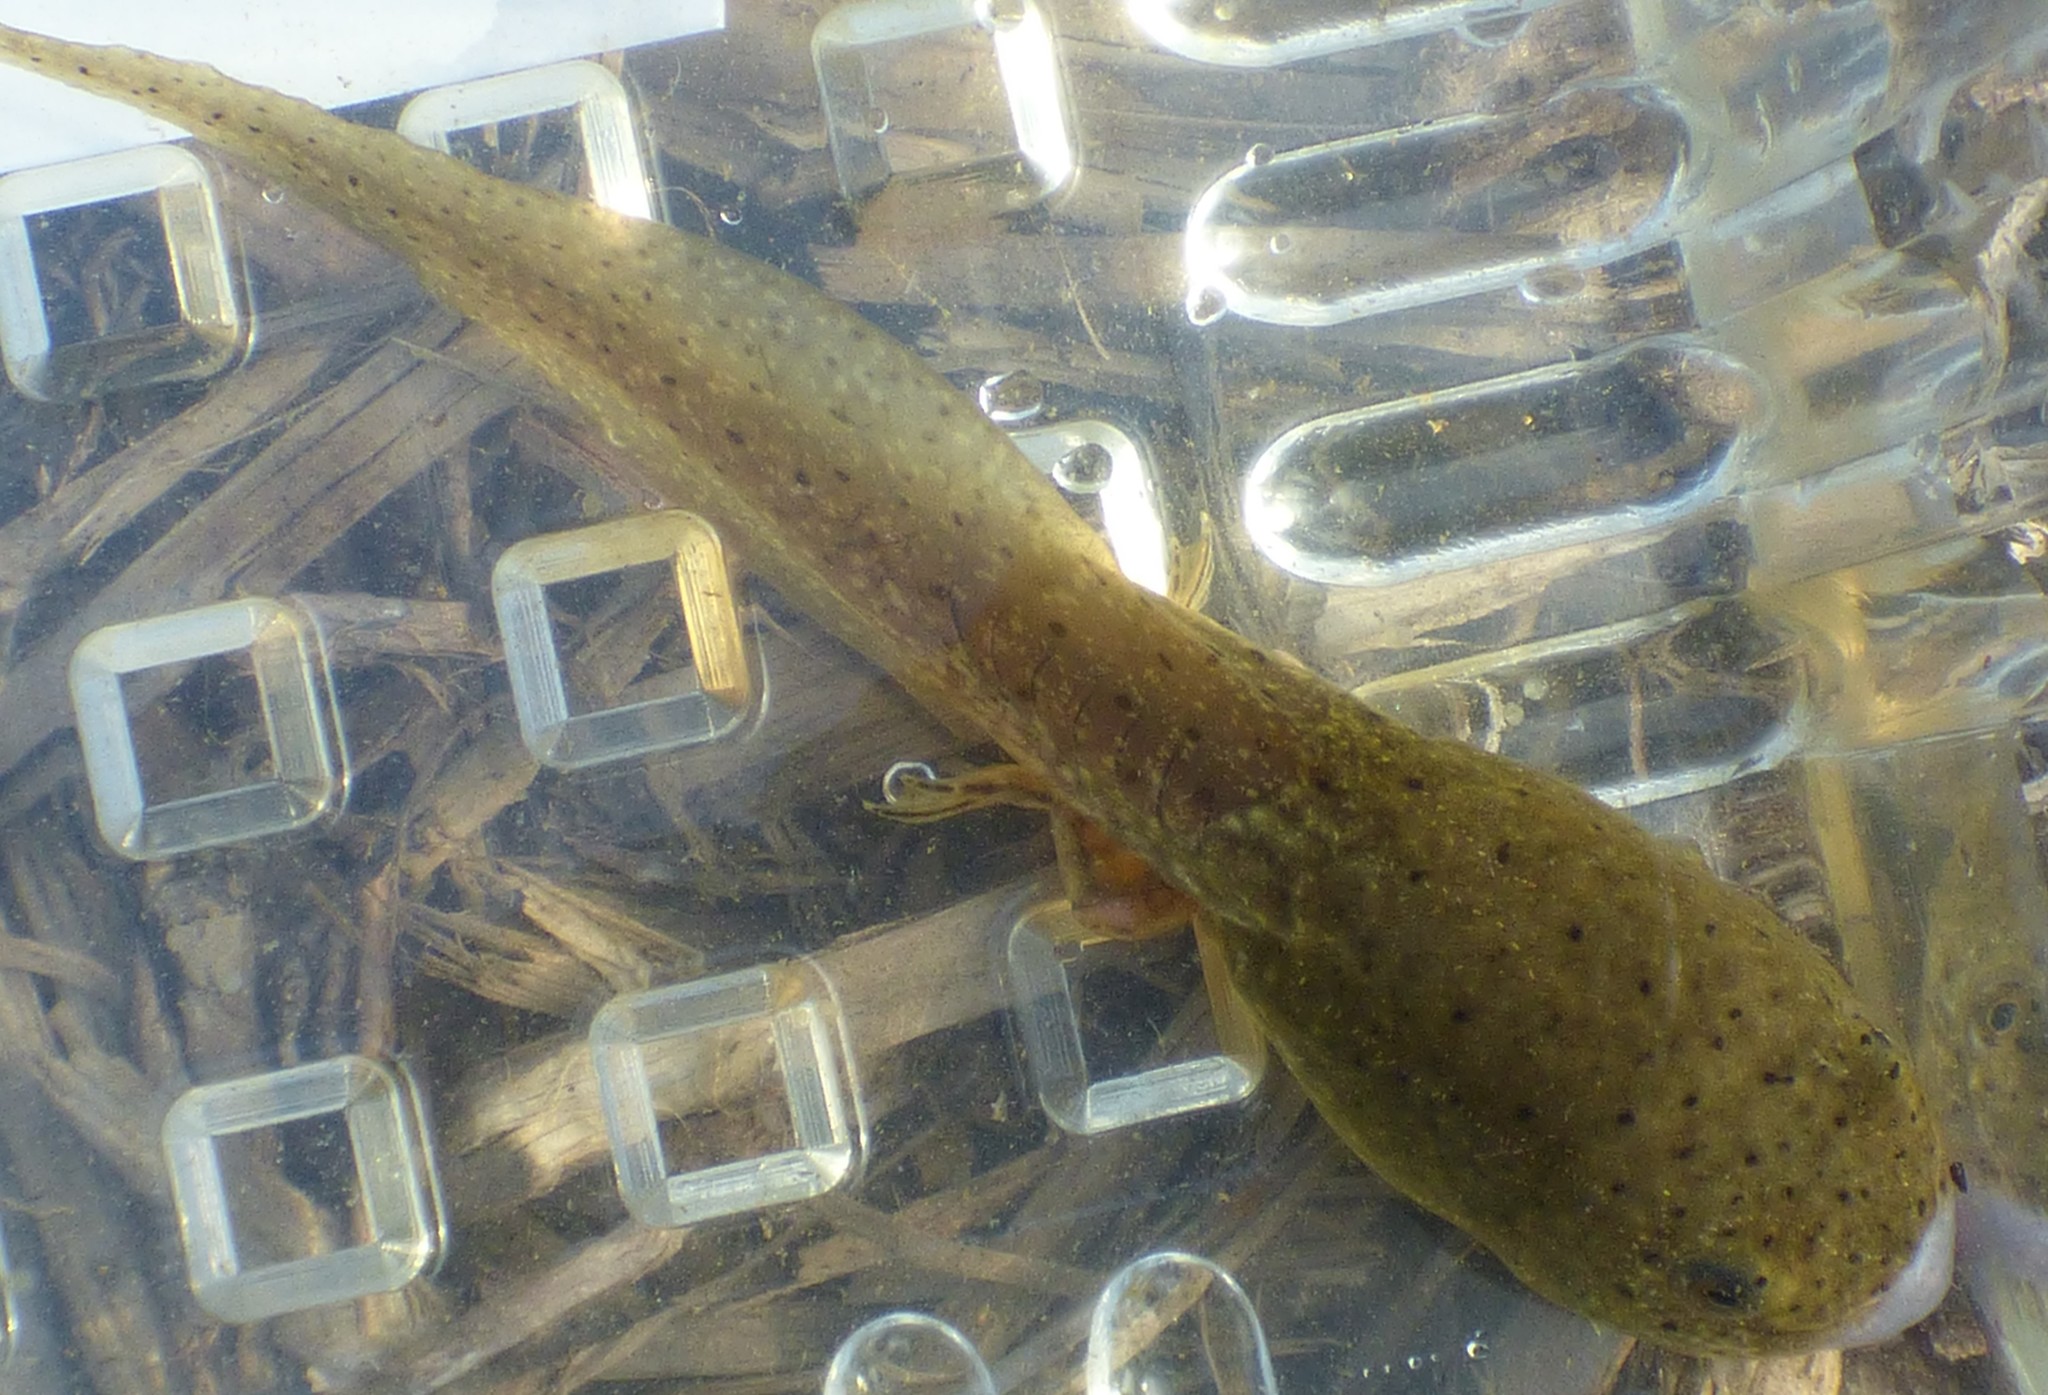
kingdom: Animalia
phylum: Chordata
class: Amphibia
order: Anura
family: Ranidae
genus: Lithobates
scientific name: Lithobates catesbeianus
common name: American bullfrog
